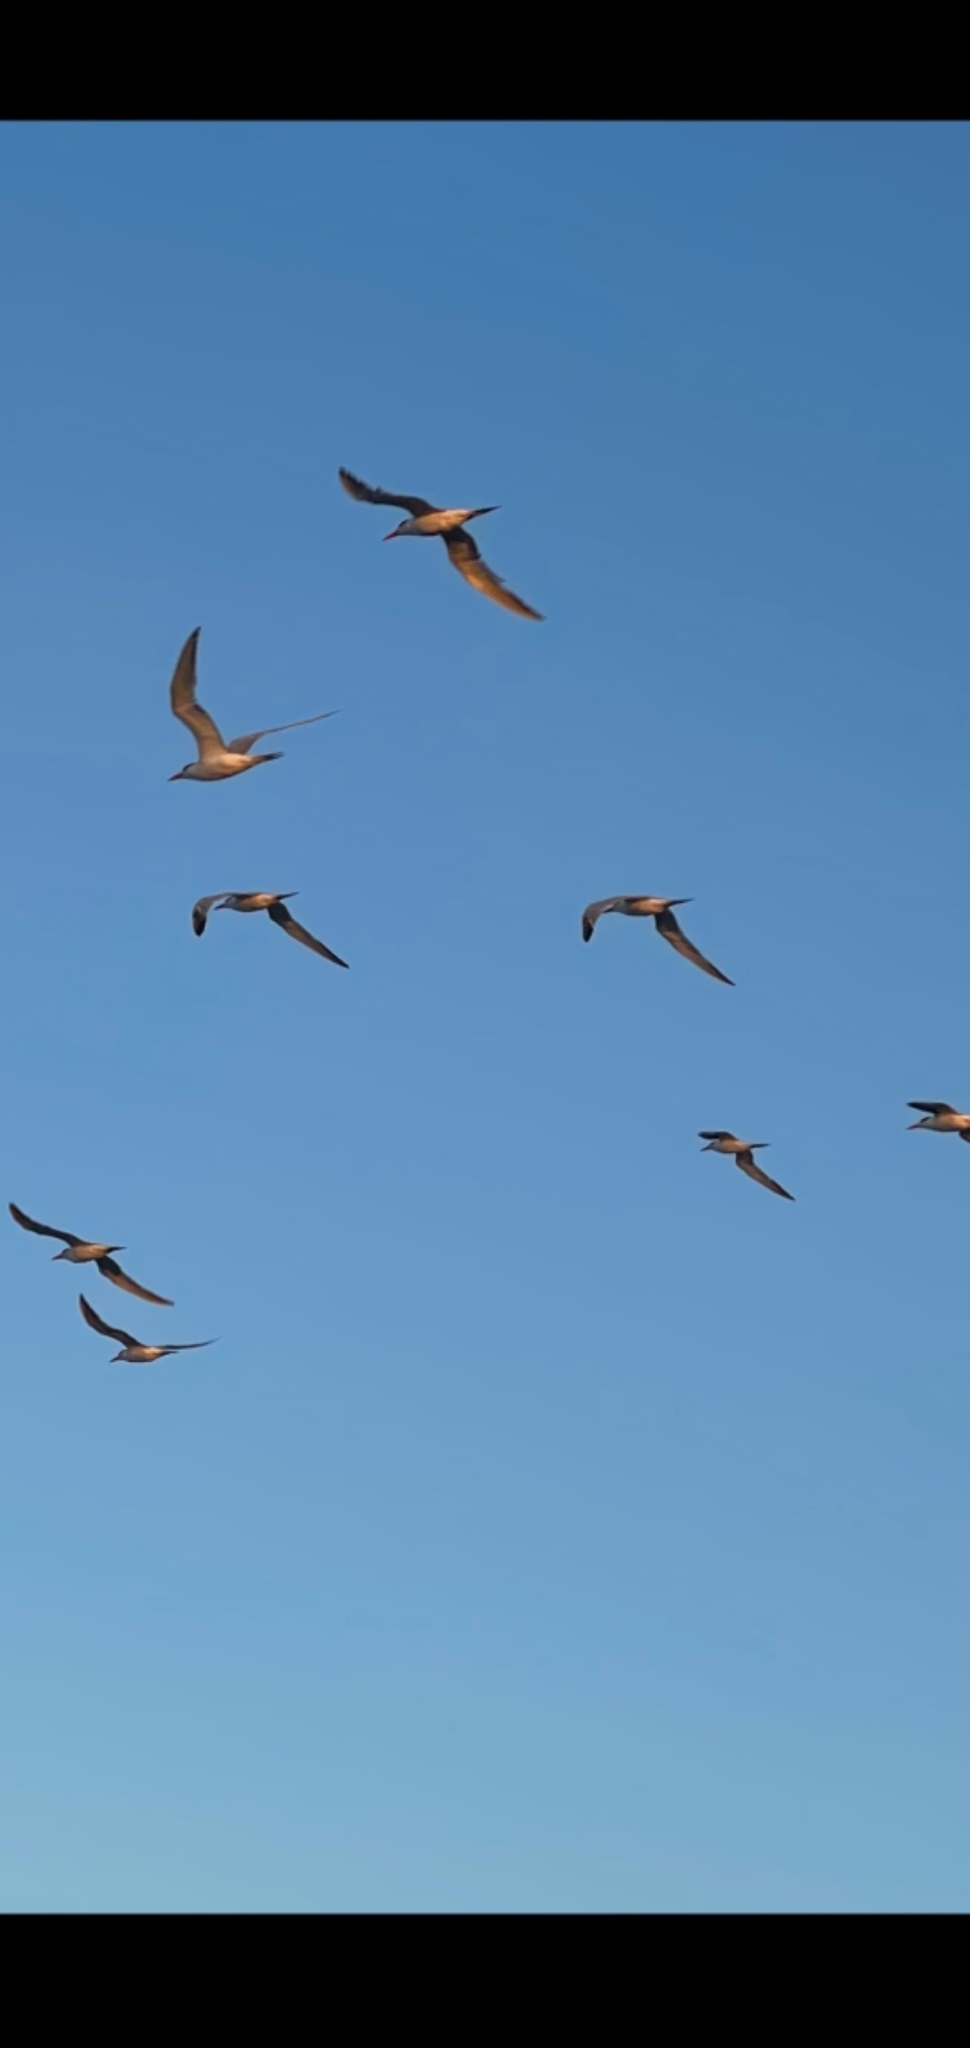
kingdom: Animalia
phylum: Chordata
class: Aves
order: Charadriiformes
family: Laridae
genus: Rynchops
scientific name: Rynchops niger
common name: Black skimmer
